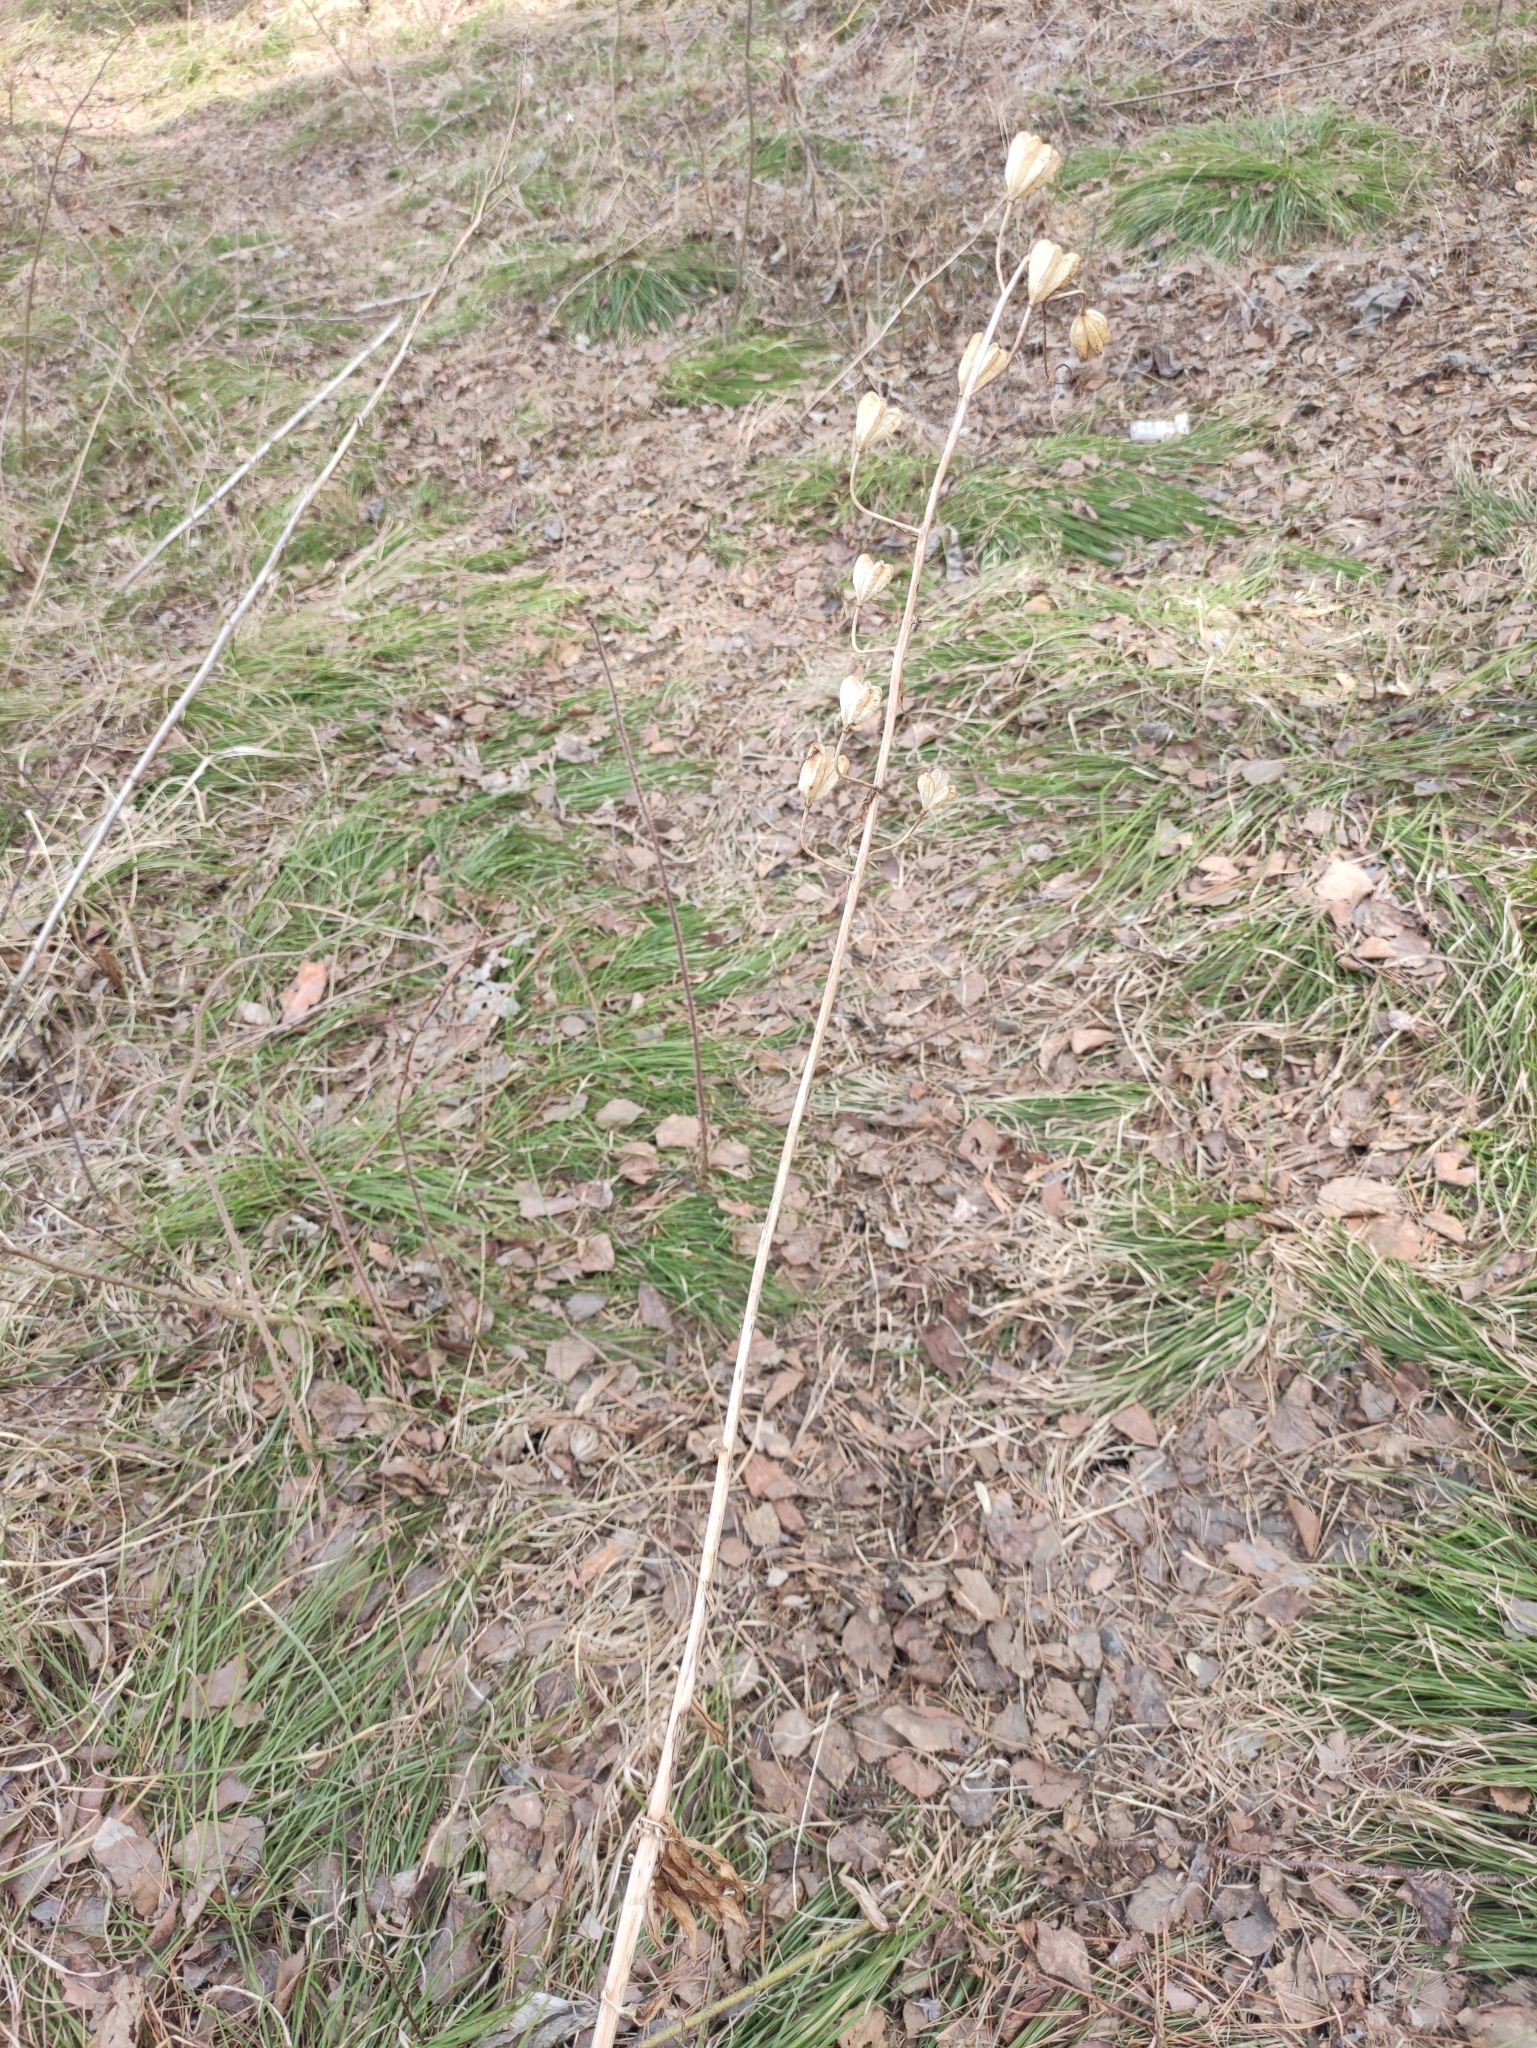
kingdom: Plantae
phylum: Tracheophyta
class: Liliopsida
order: Liliales
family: Liliaceae
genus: Lilium
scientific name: Lilium martagon
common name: Martagon lily
